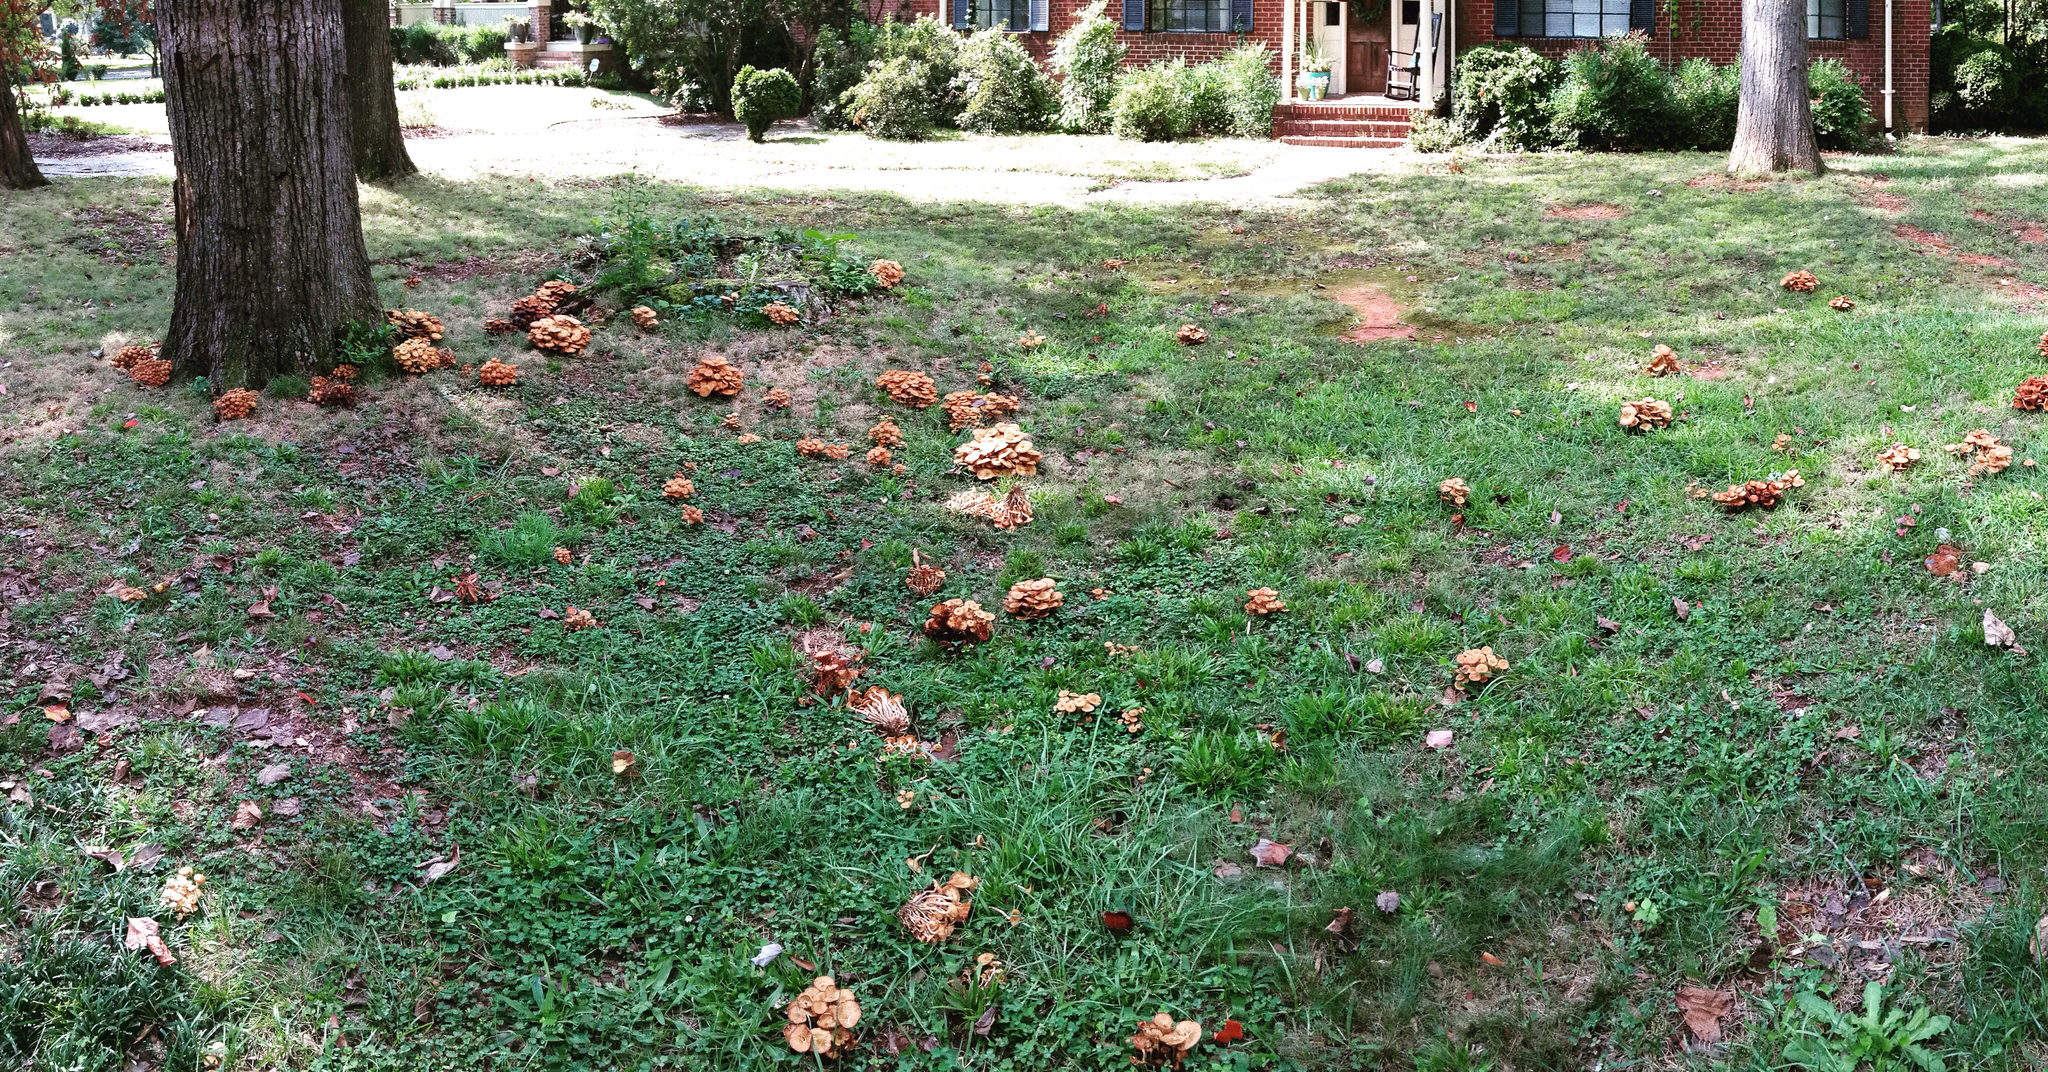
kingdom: Fungi
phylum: Basidiomycota
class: Agaricomycetes
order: Agaricales
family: Physalacriaceae
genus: Desarmillaria
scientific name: Desarmillaria caespitosa
